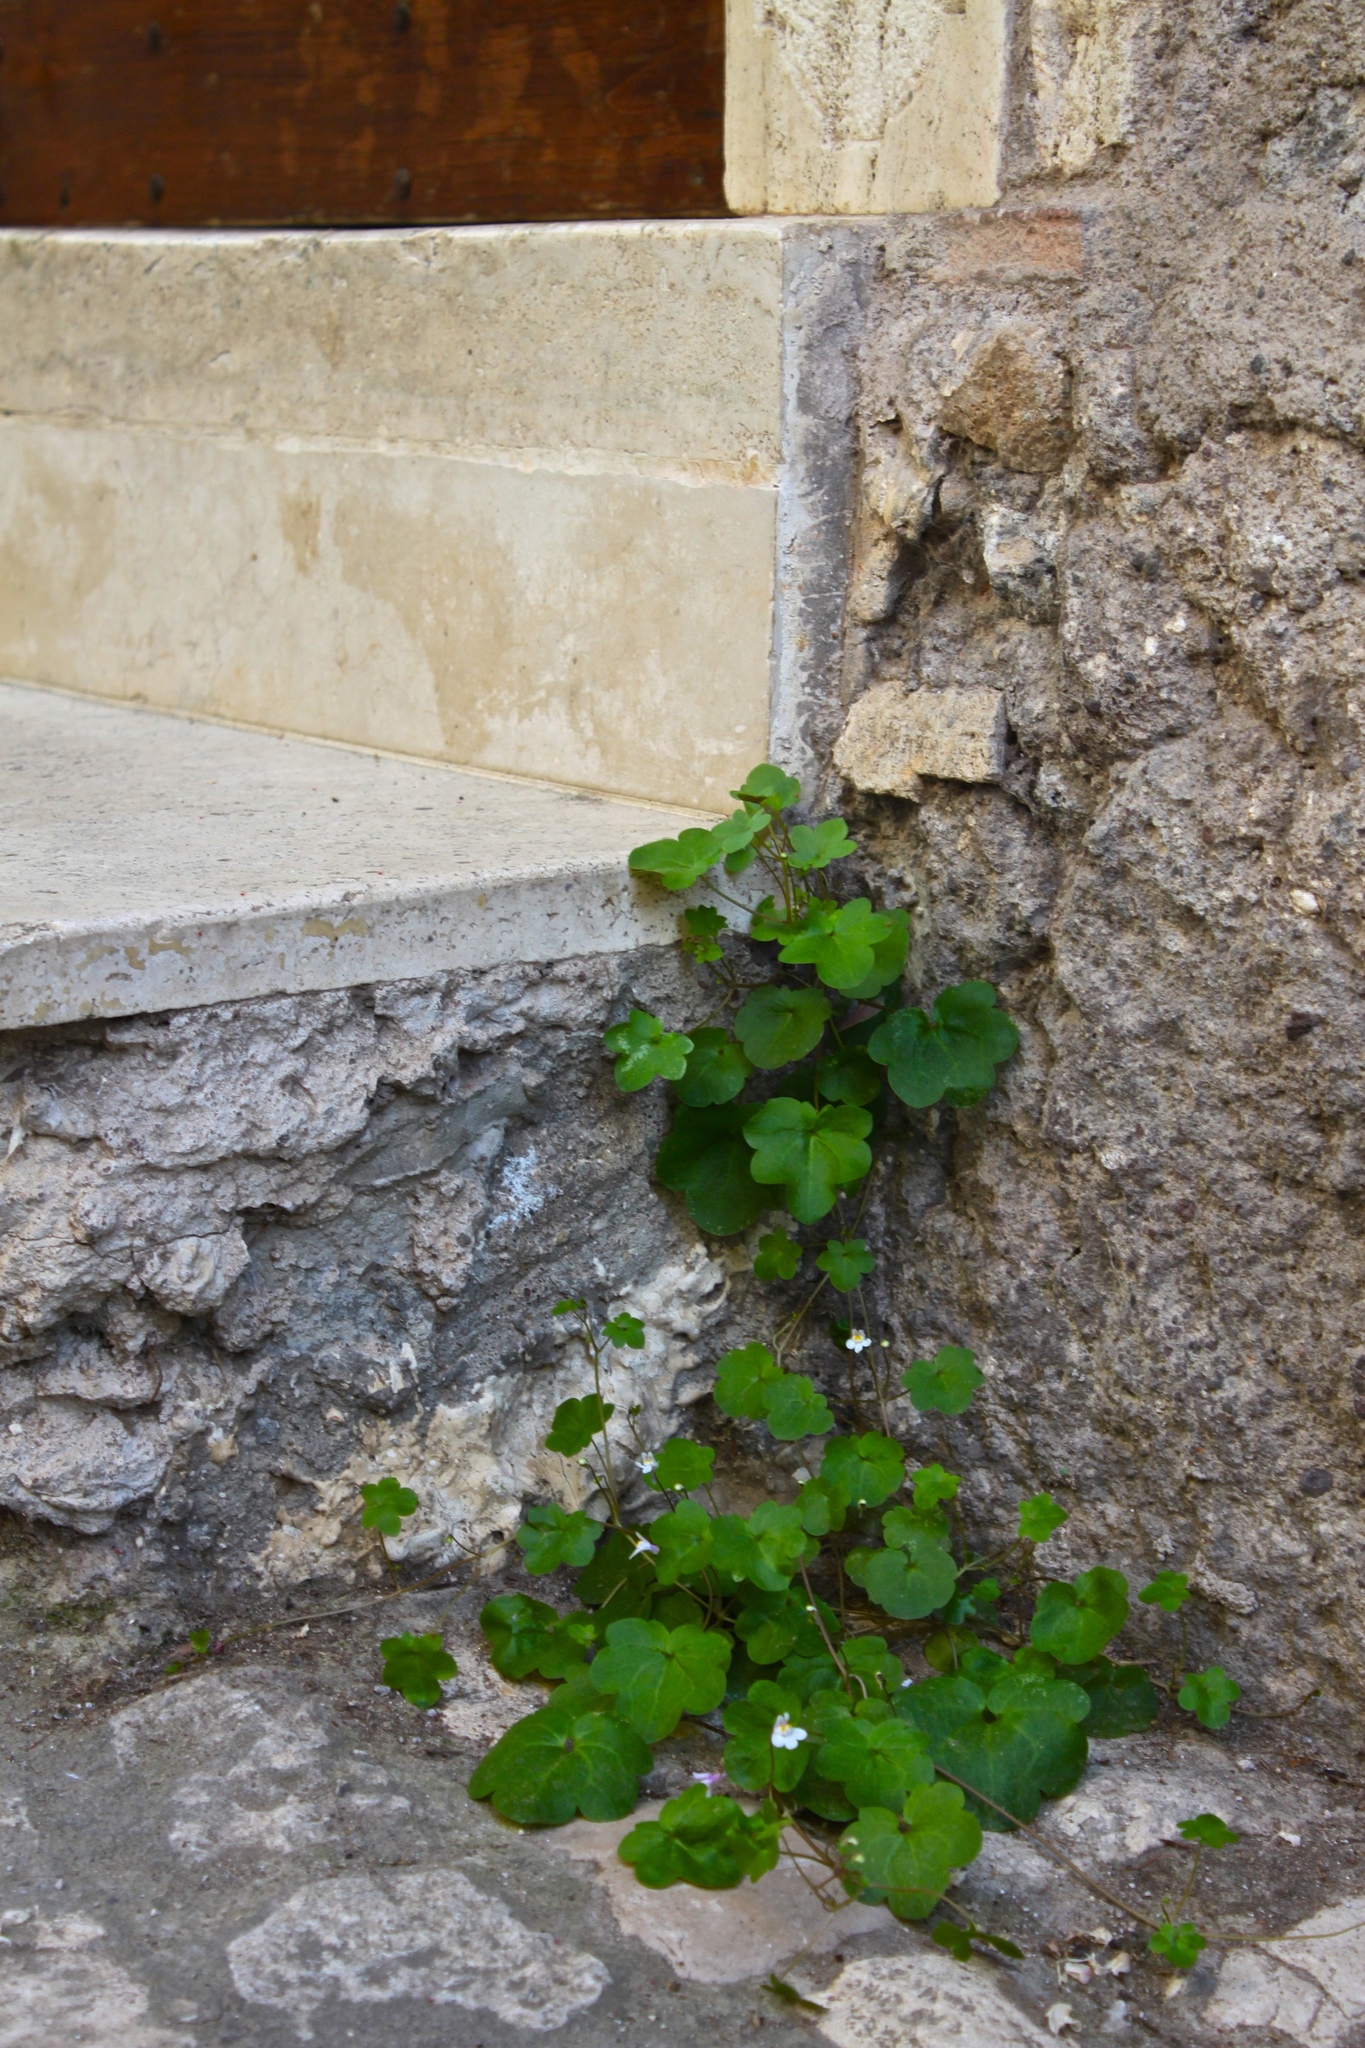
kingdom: Plantae
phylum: Tracheophyta
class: Magnoliopsida
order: Lamiales
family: Plantaginaceae
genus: Cymbalaria
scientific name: Cymbalaria muralis
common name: Ivy-leaved toadflax
